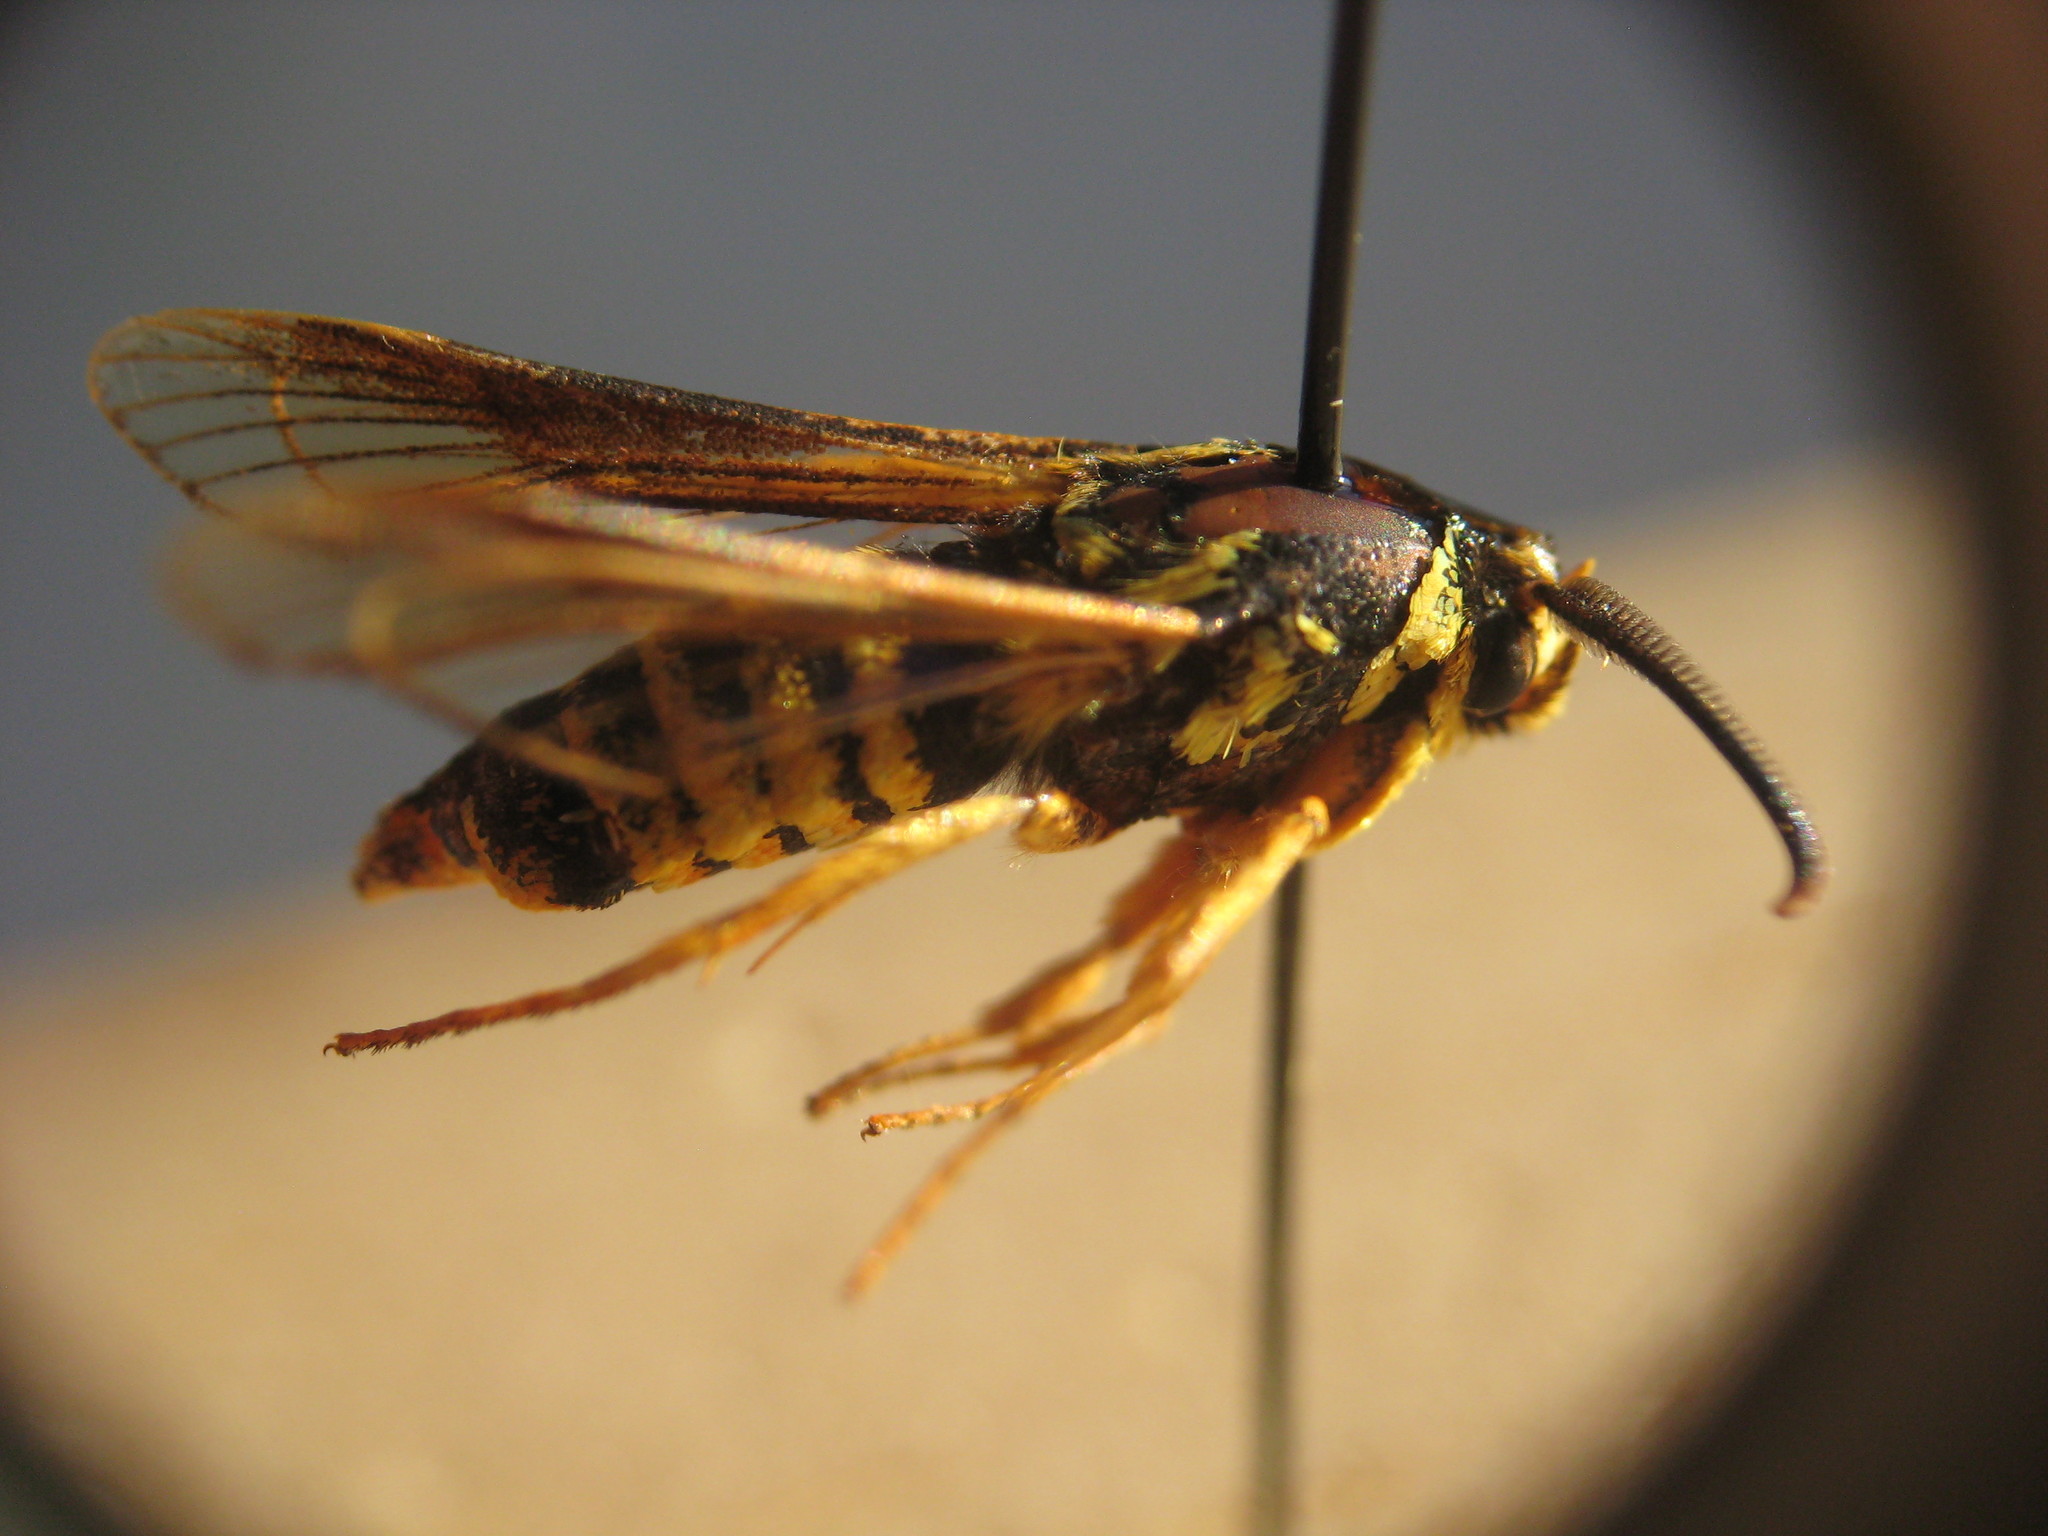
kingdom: Animalia
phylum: Arthropoda
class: Insecta
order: Lepidoptera
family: Sesiidae
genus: Paranthrene
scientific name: Paranthrene simulans
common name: Hornet clearwing moth
